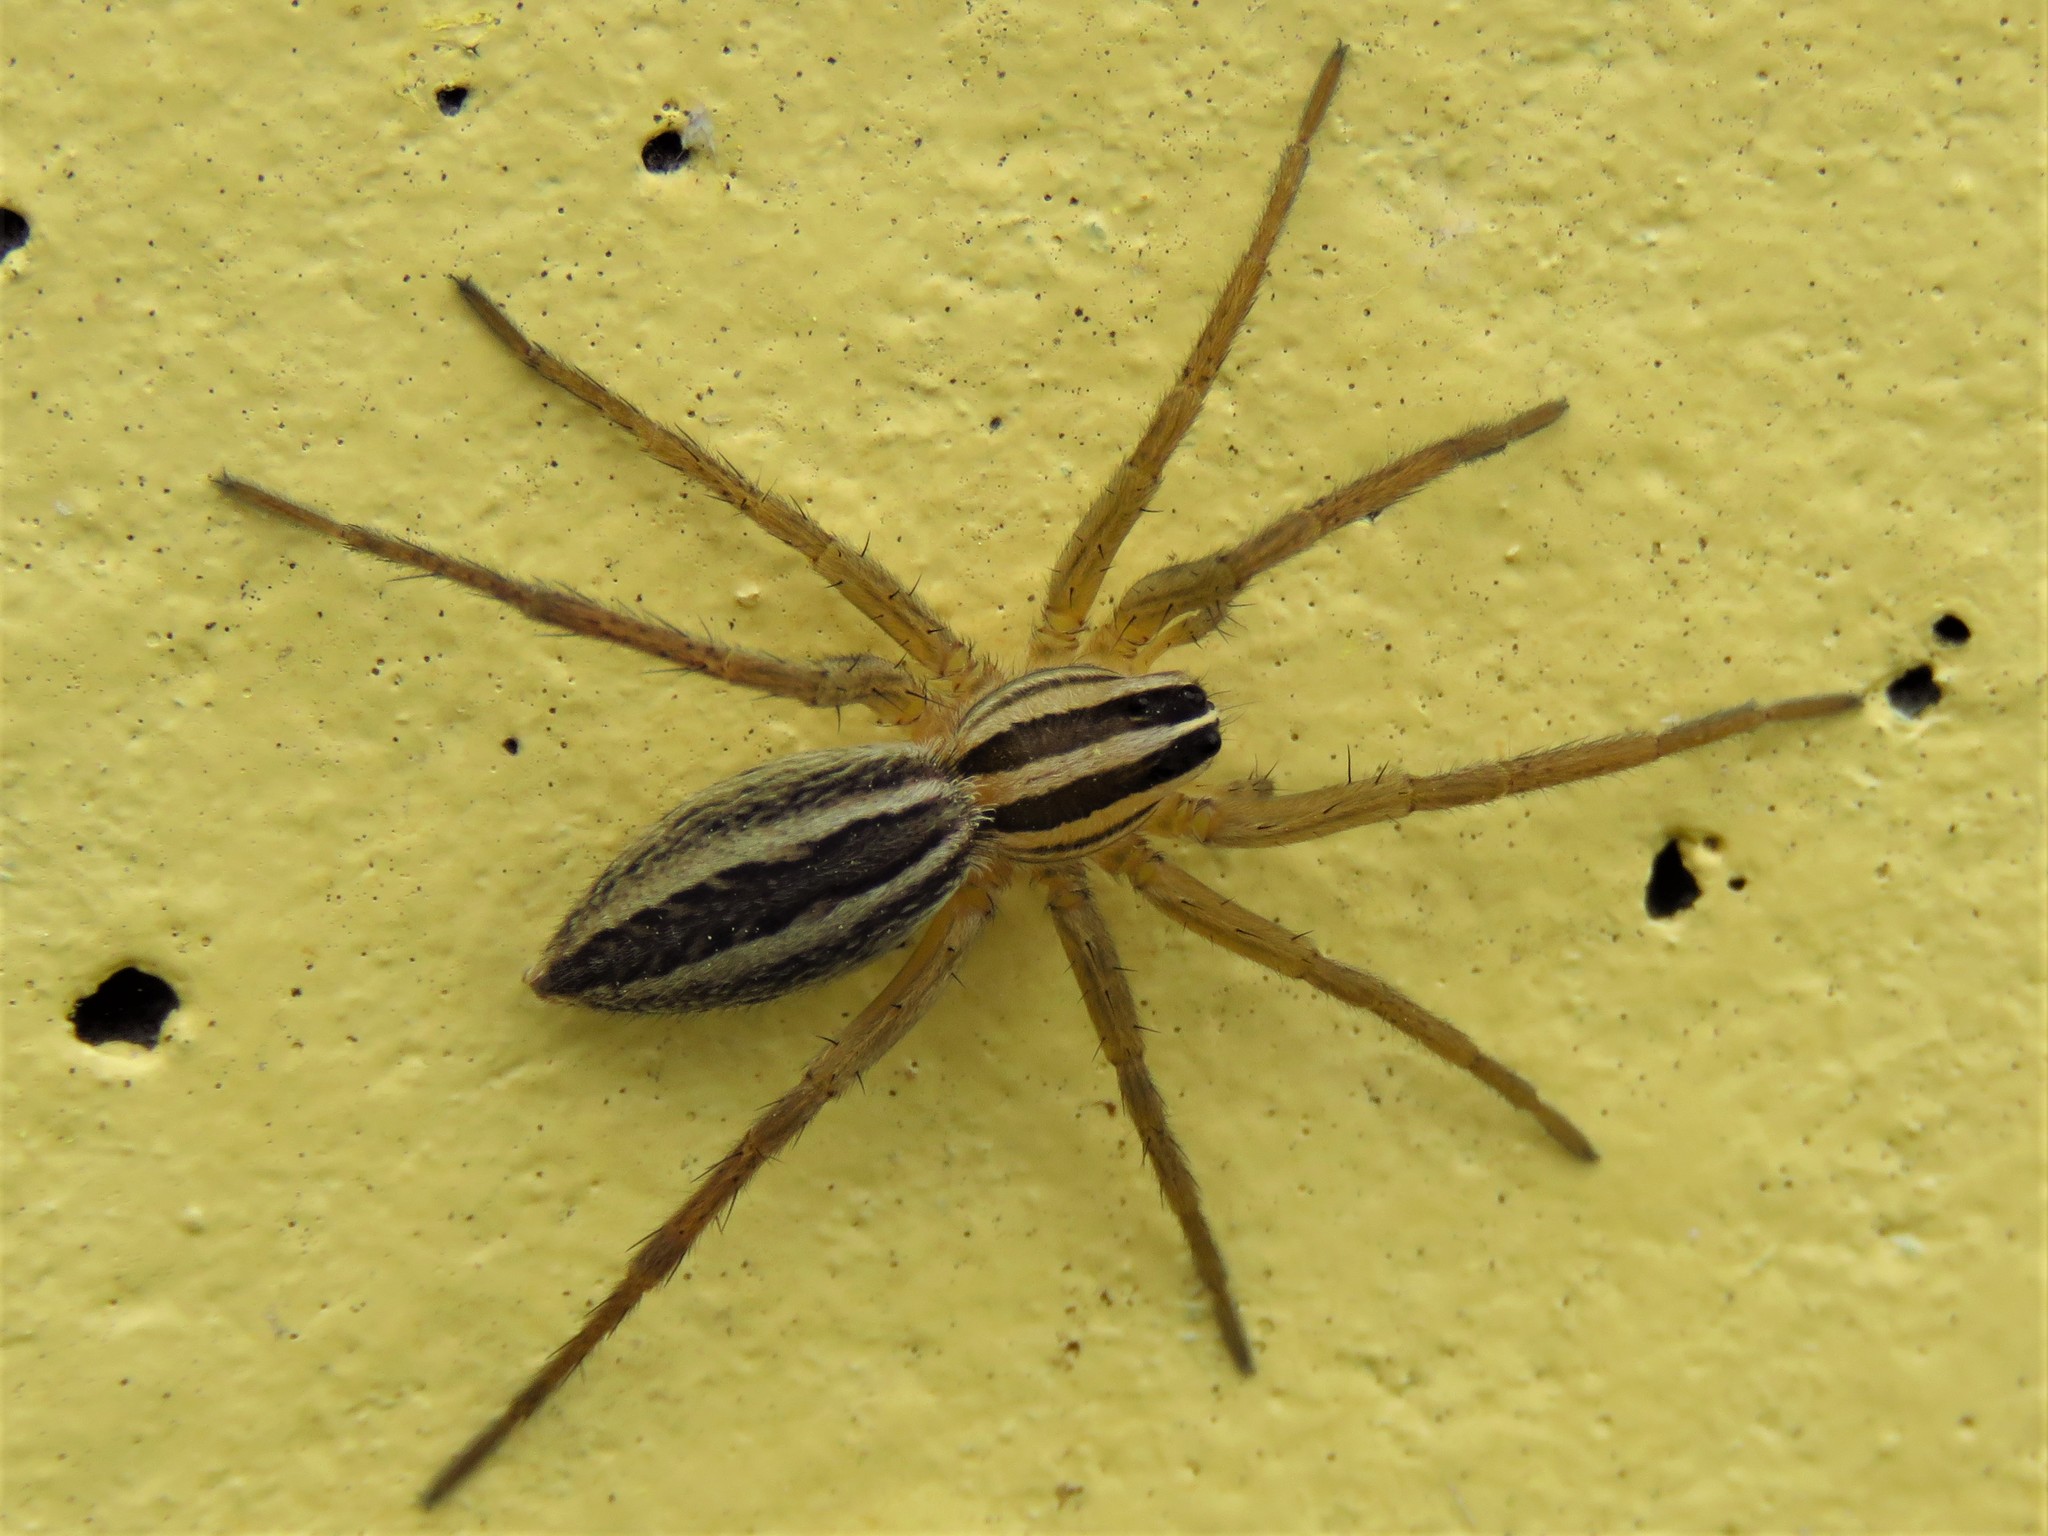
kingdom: Animalia
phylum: Arthropoda
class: Arachnida
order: Araneae
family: Lycosidae
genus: Rabidosa
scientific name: Rabidosa rabida
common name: Rabid wolf spider
